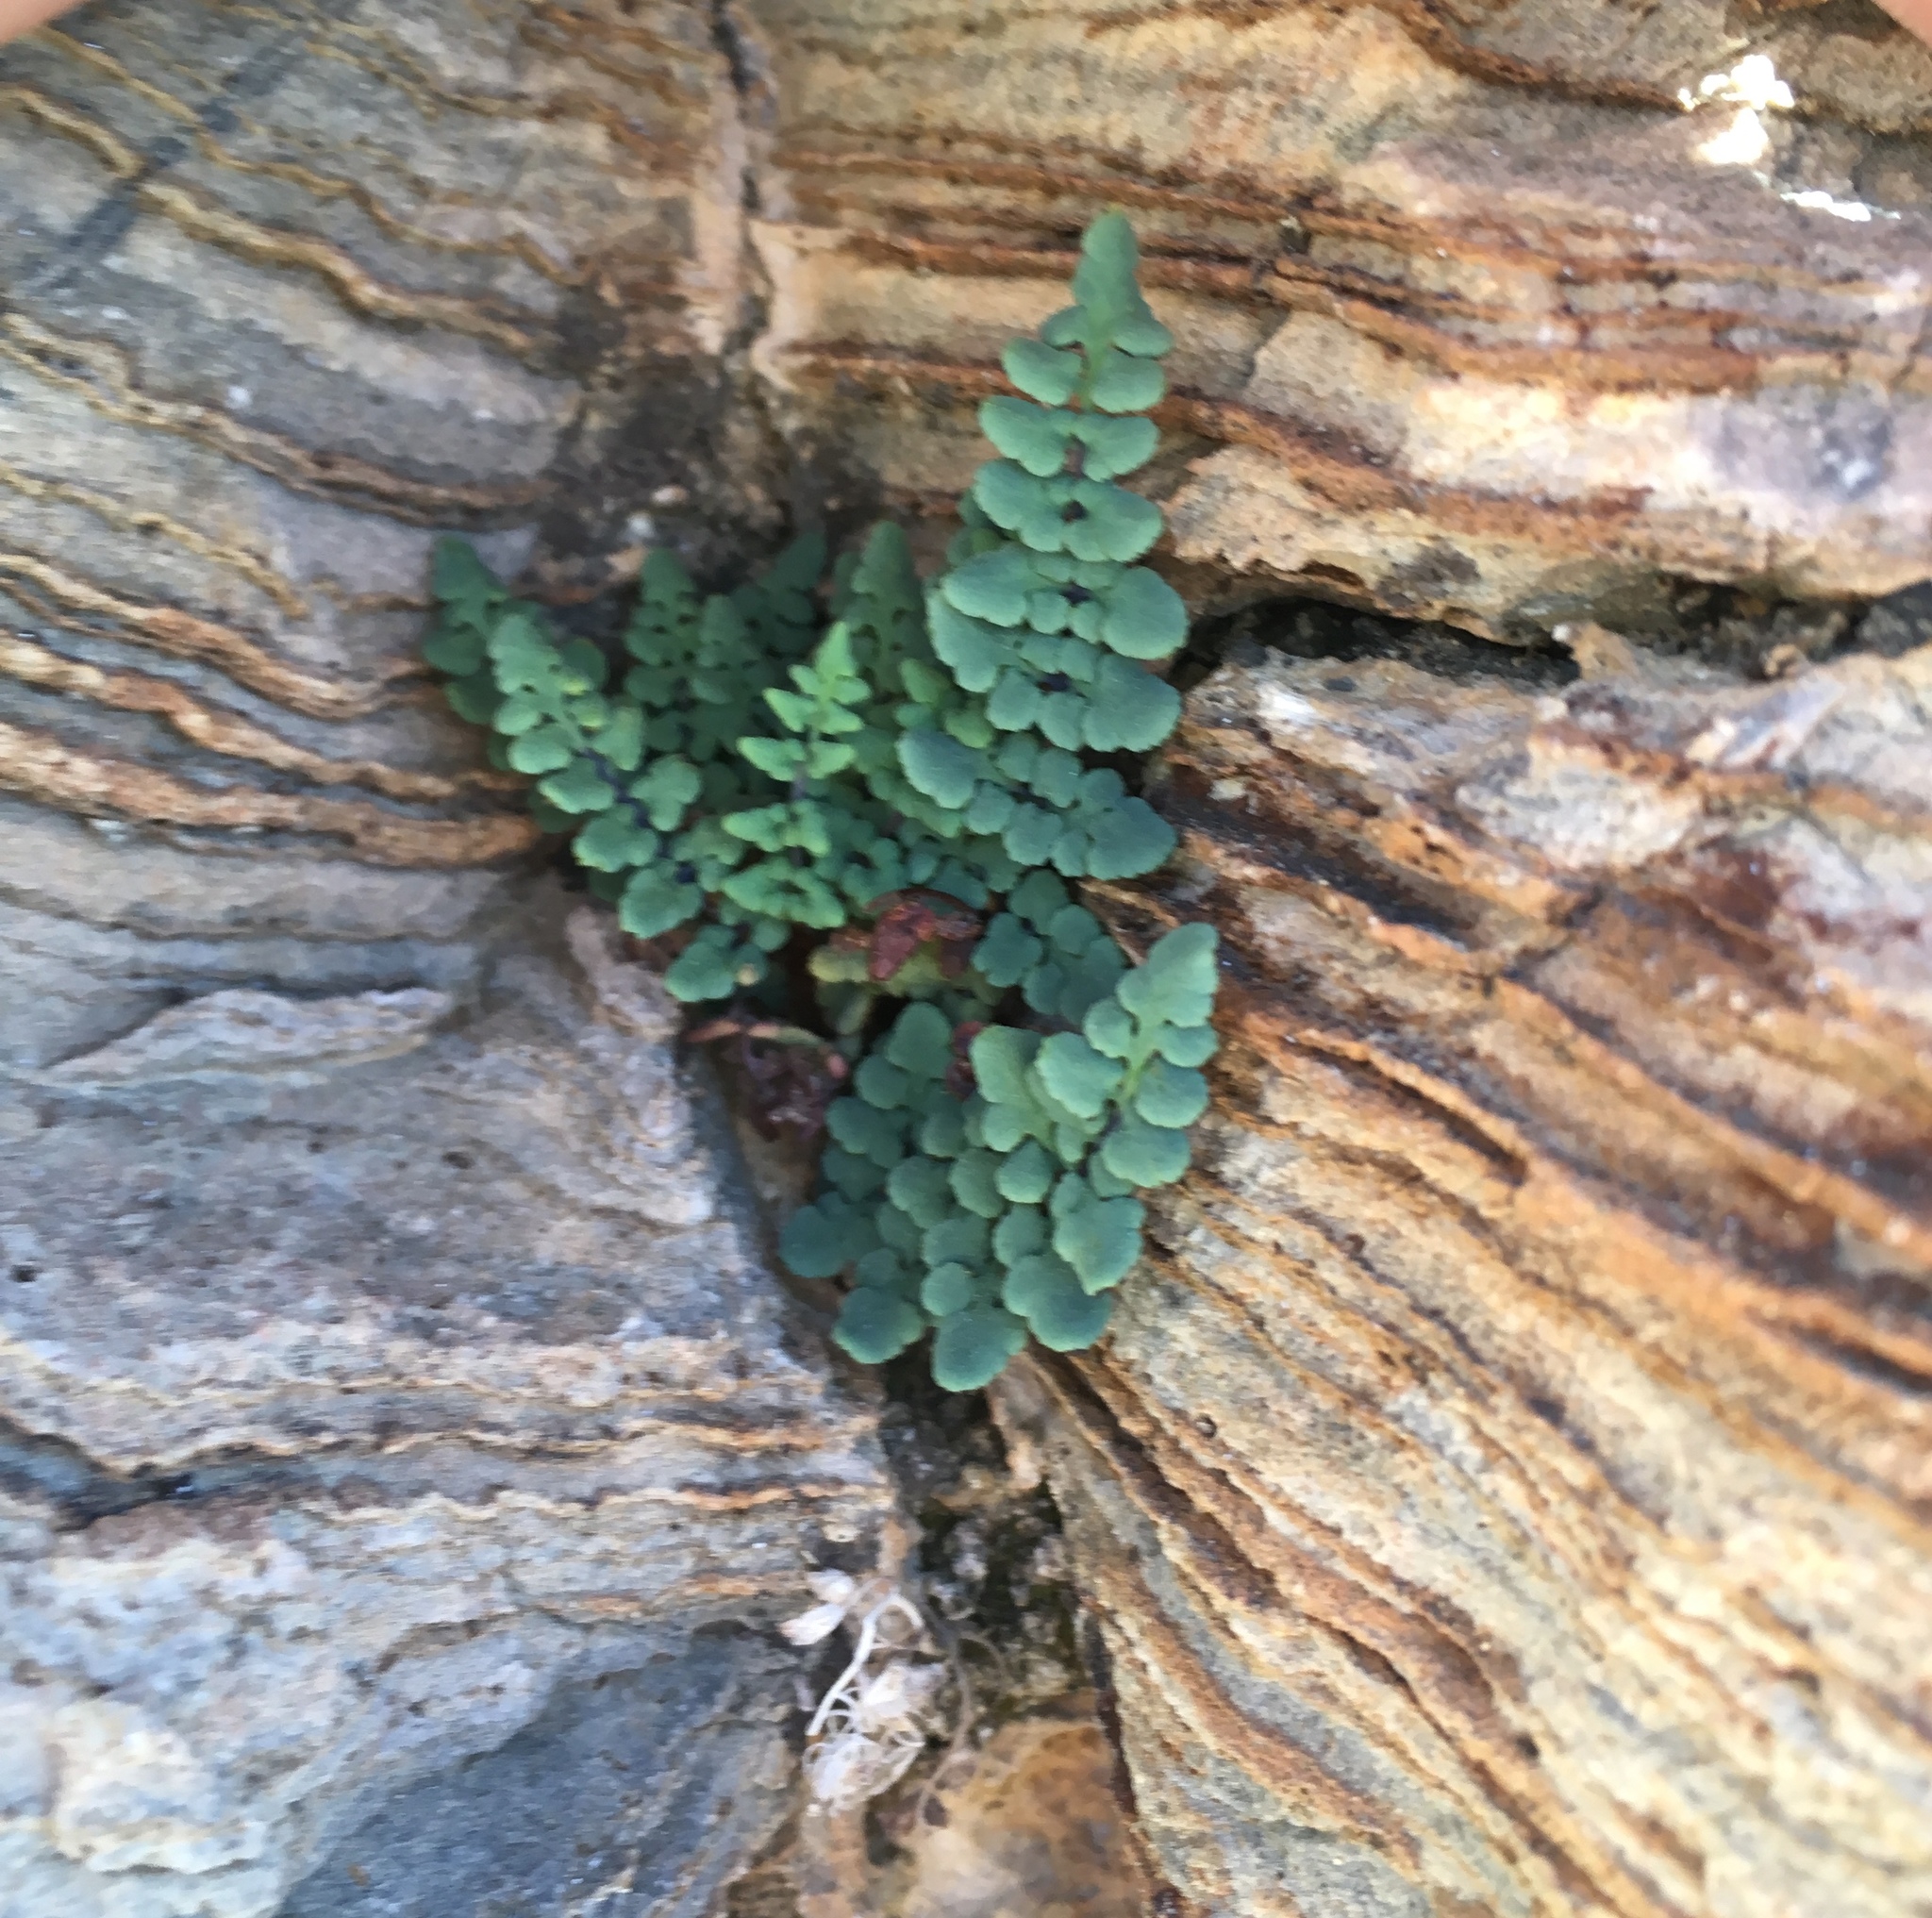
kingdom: Plantae
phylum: Tracheophyta
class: Polypodiopsida
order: Polypodiales
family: Pteridaceae
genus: Argyrochosma
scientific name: Argyrochosma jonesii
